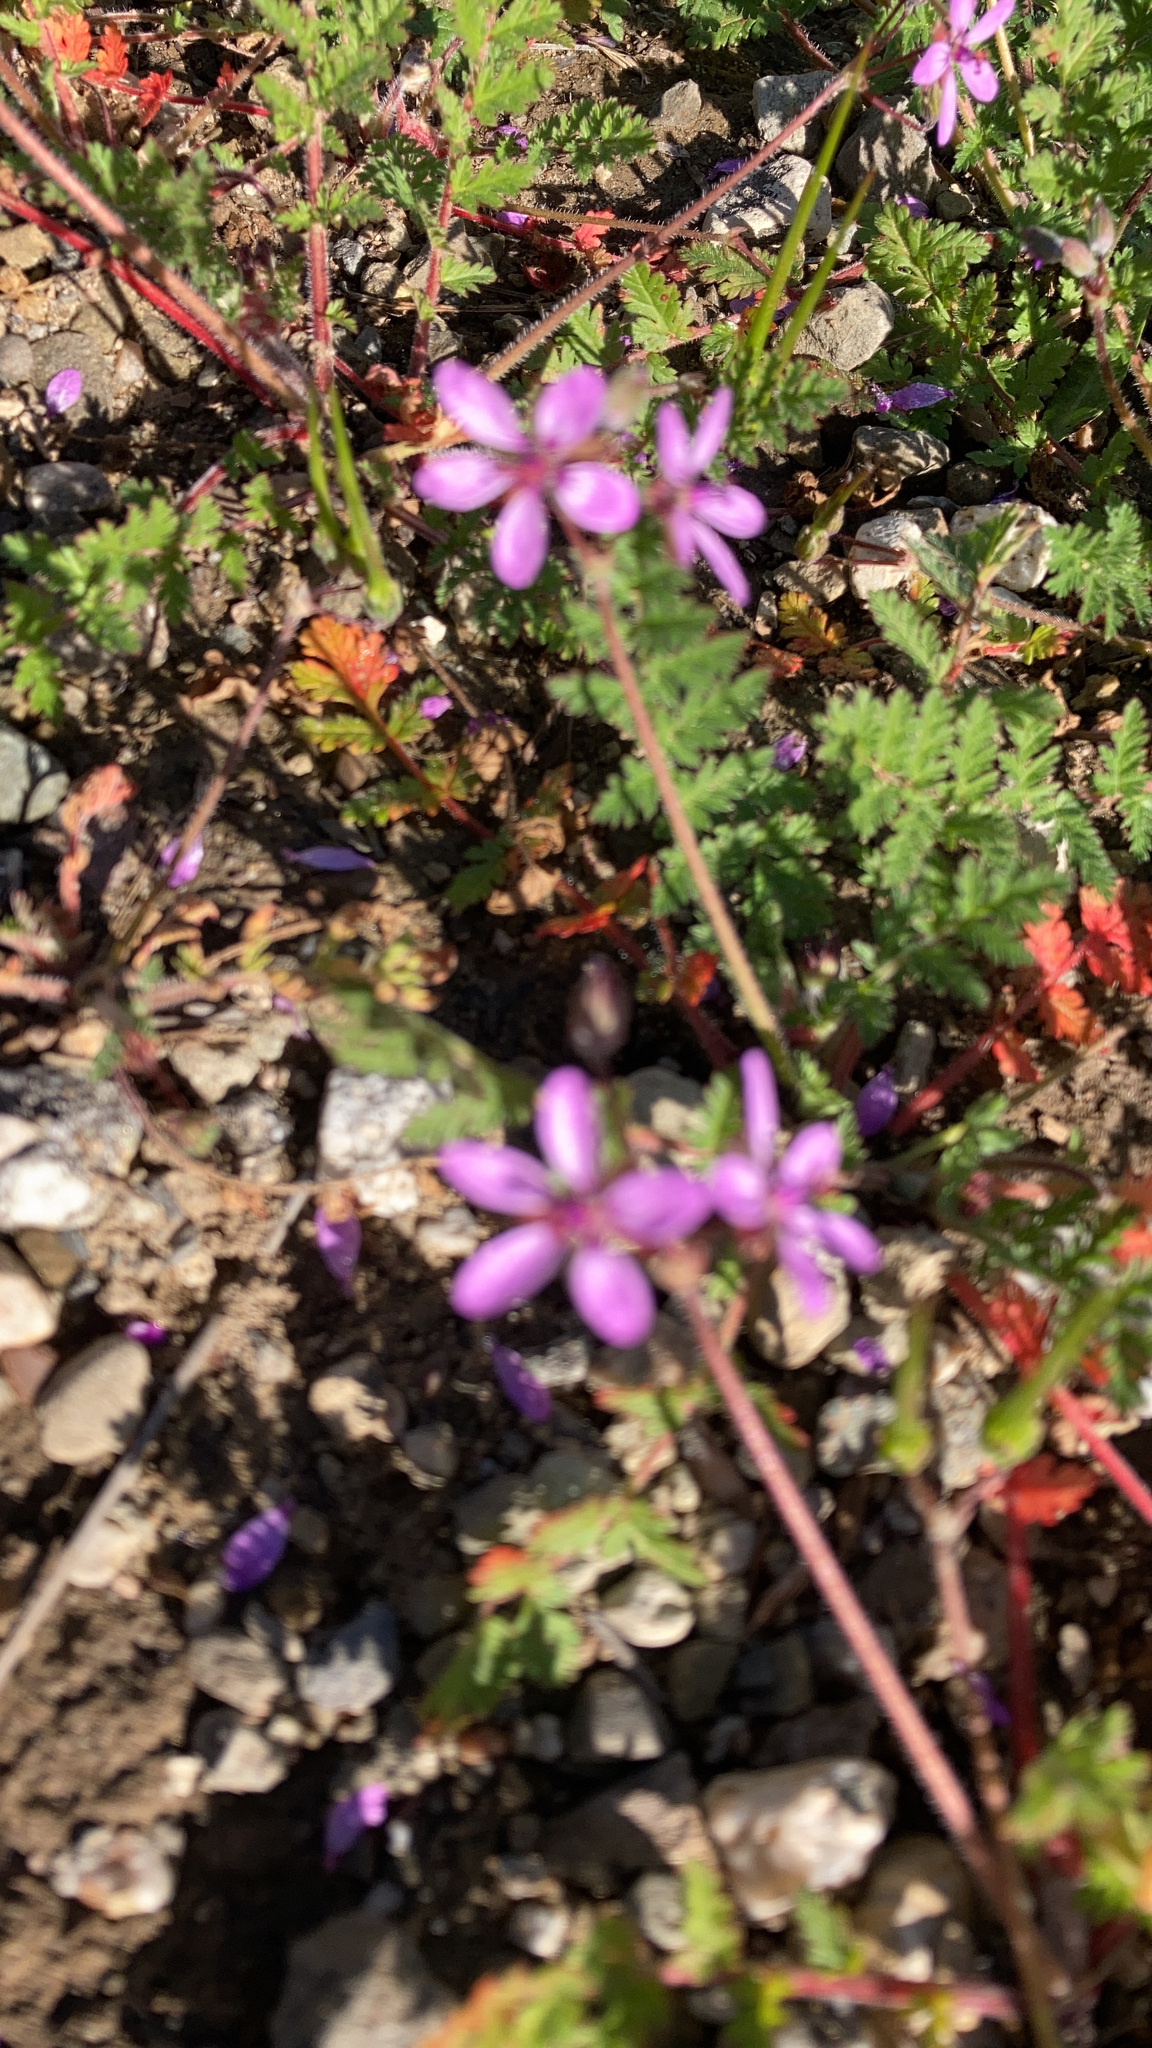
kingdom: Plantae
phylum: Tracheophyta
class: Magnoliopsida
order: Geraniales
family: Geraniaceae
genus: Erodium
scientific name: Erodium cicutarium
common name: Common stork's-bill
